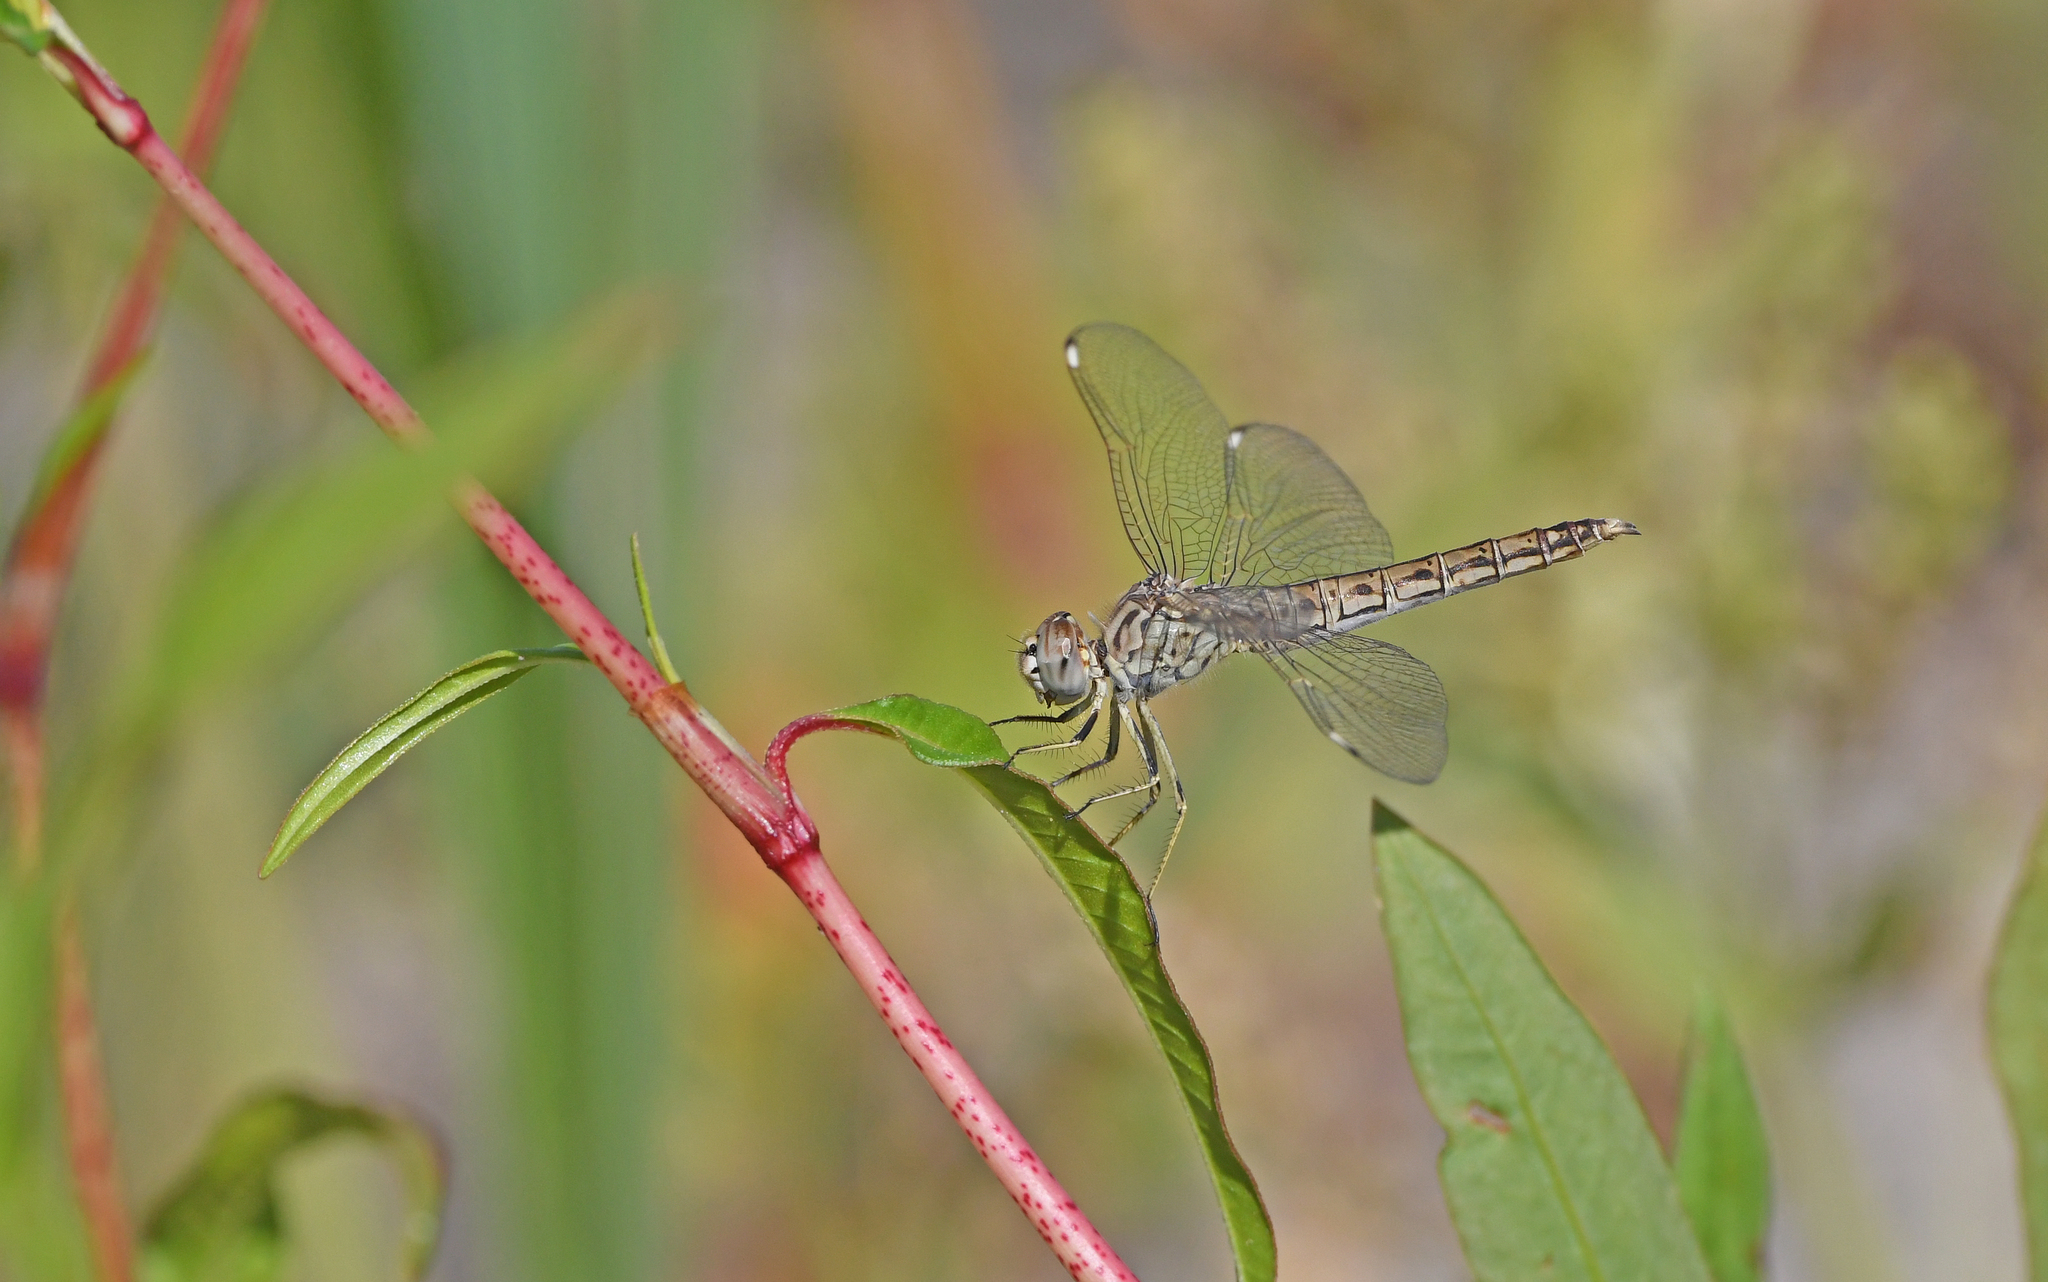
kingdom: Animalia
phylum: Arthropoda
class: Insecta
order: Odonata
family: Libellulidae
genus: Brachythemis
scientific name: Brachythemis impartita
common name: Banded groundling
